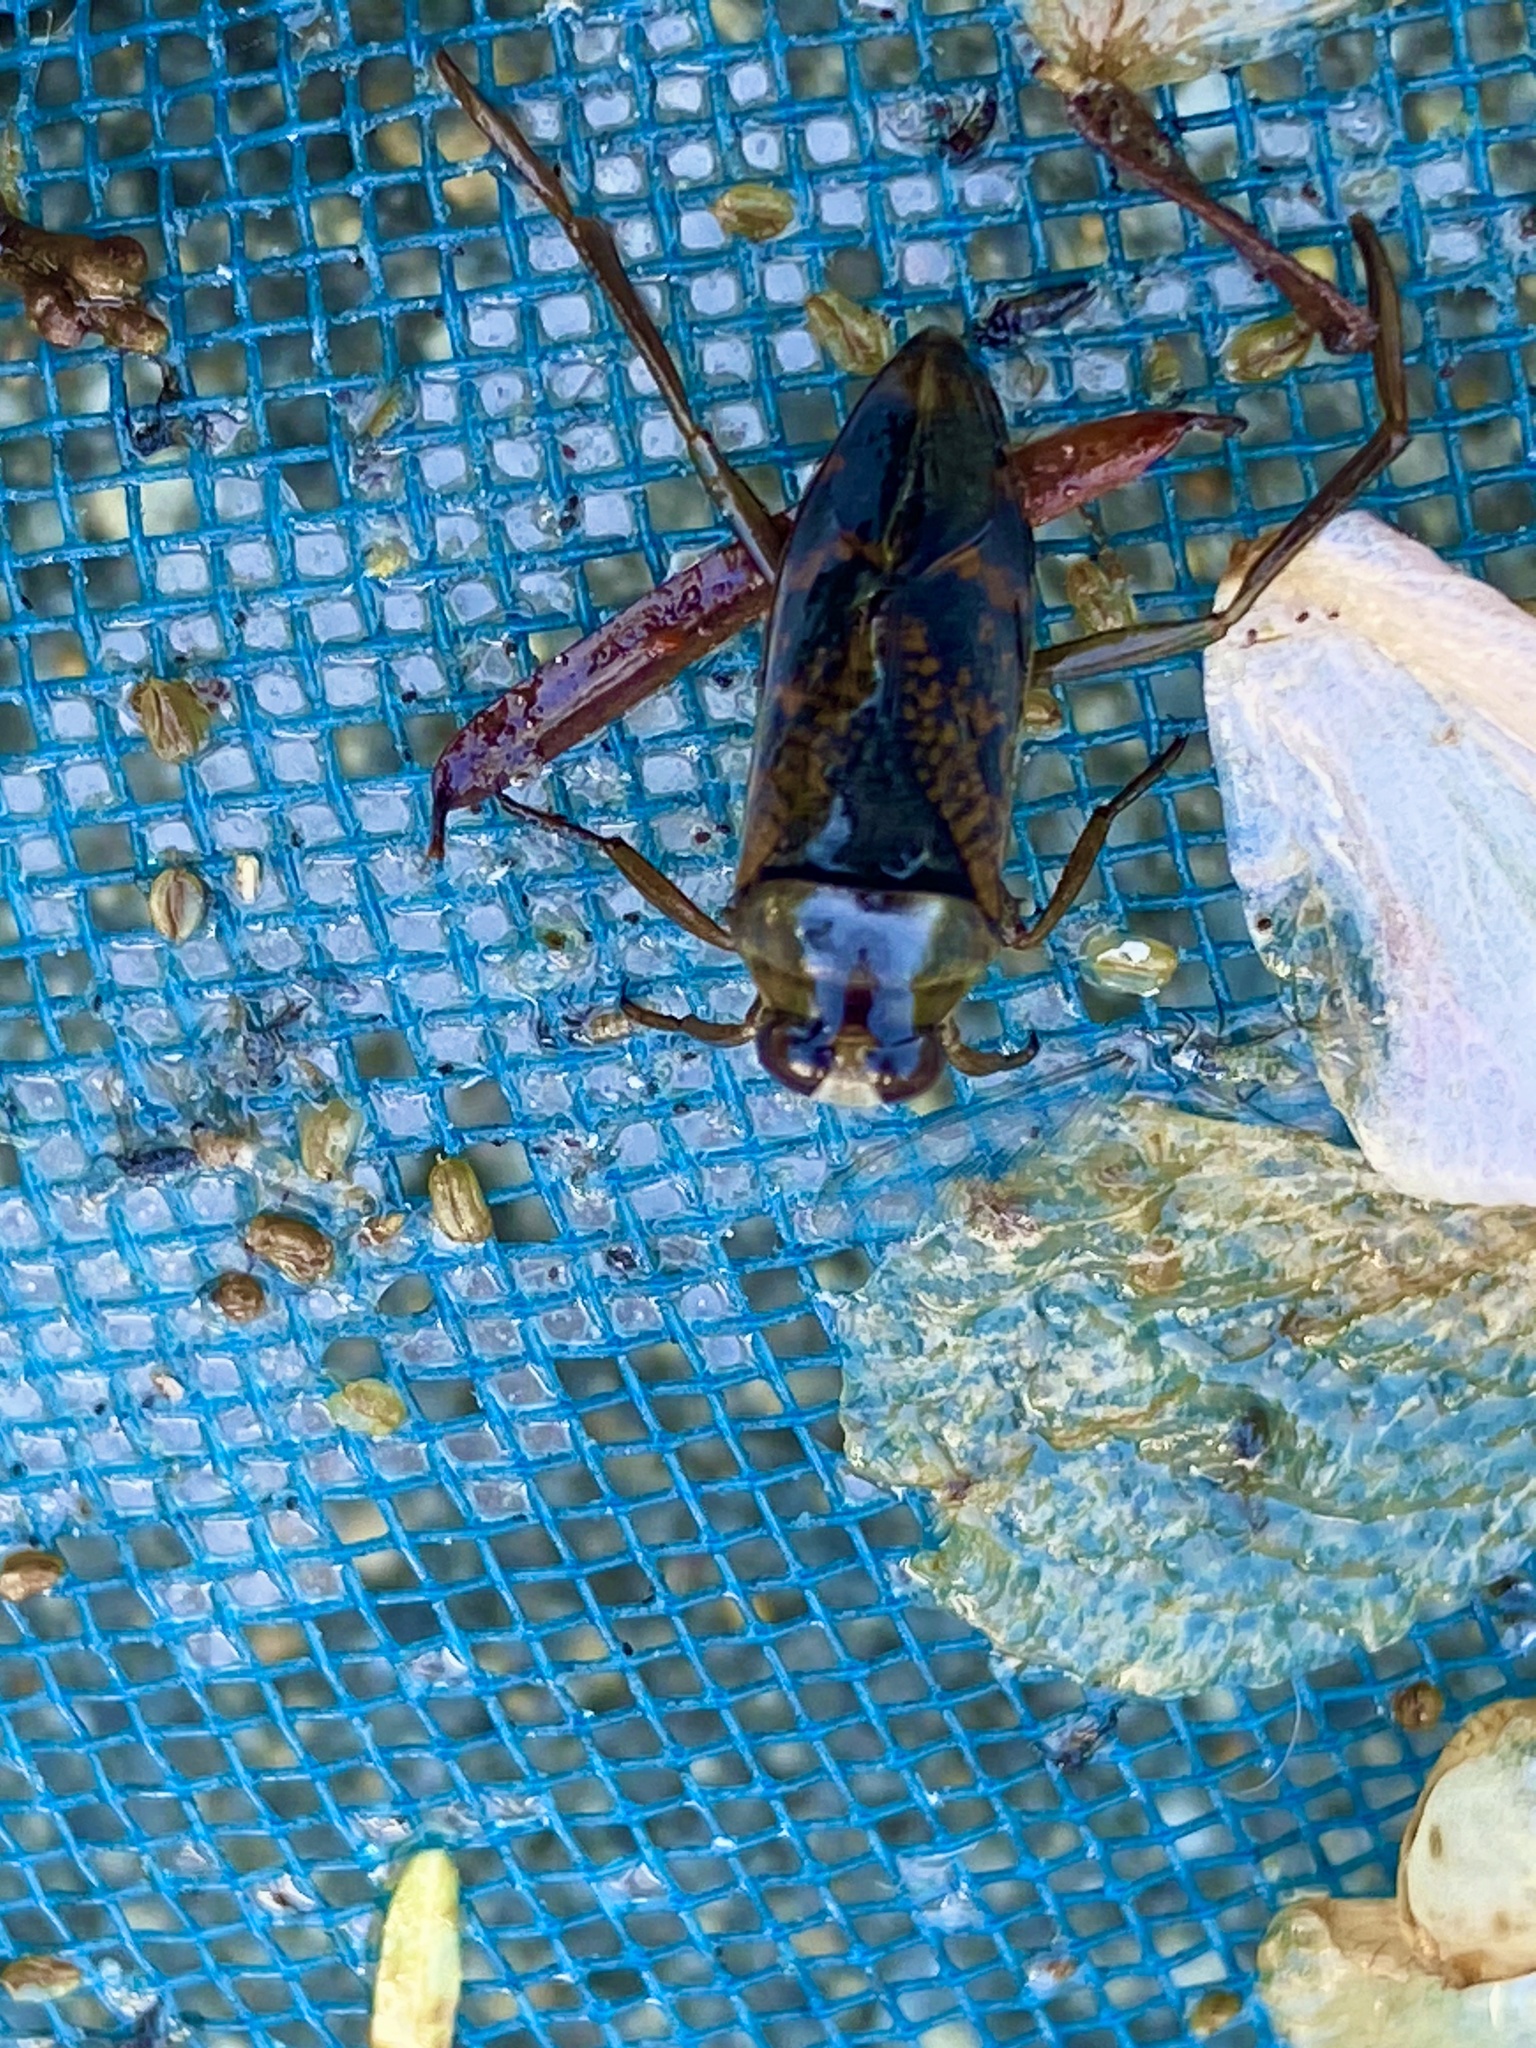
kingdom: Animalia
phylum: Arthropoda
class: Insecta
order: Hemiptera
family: Notonectidae
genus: Notonecta
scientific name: Notonecta irrorata
